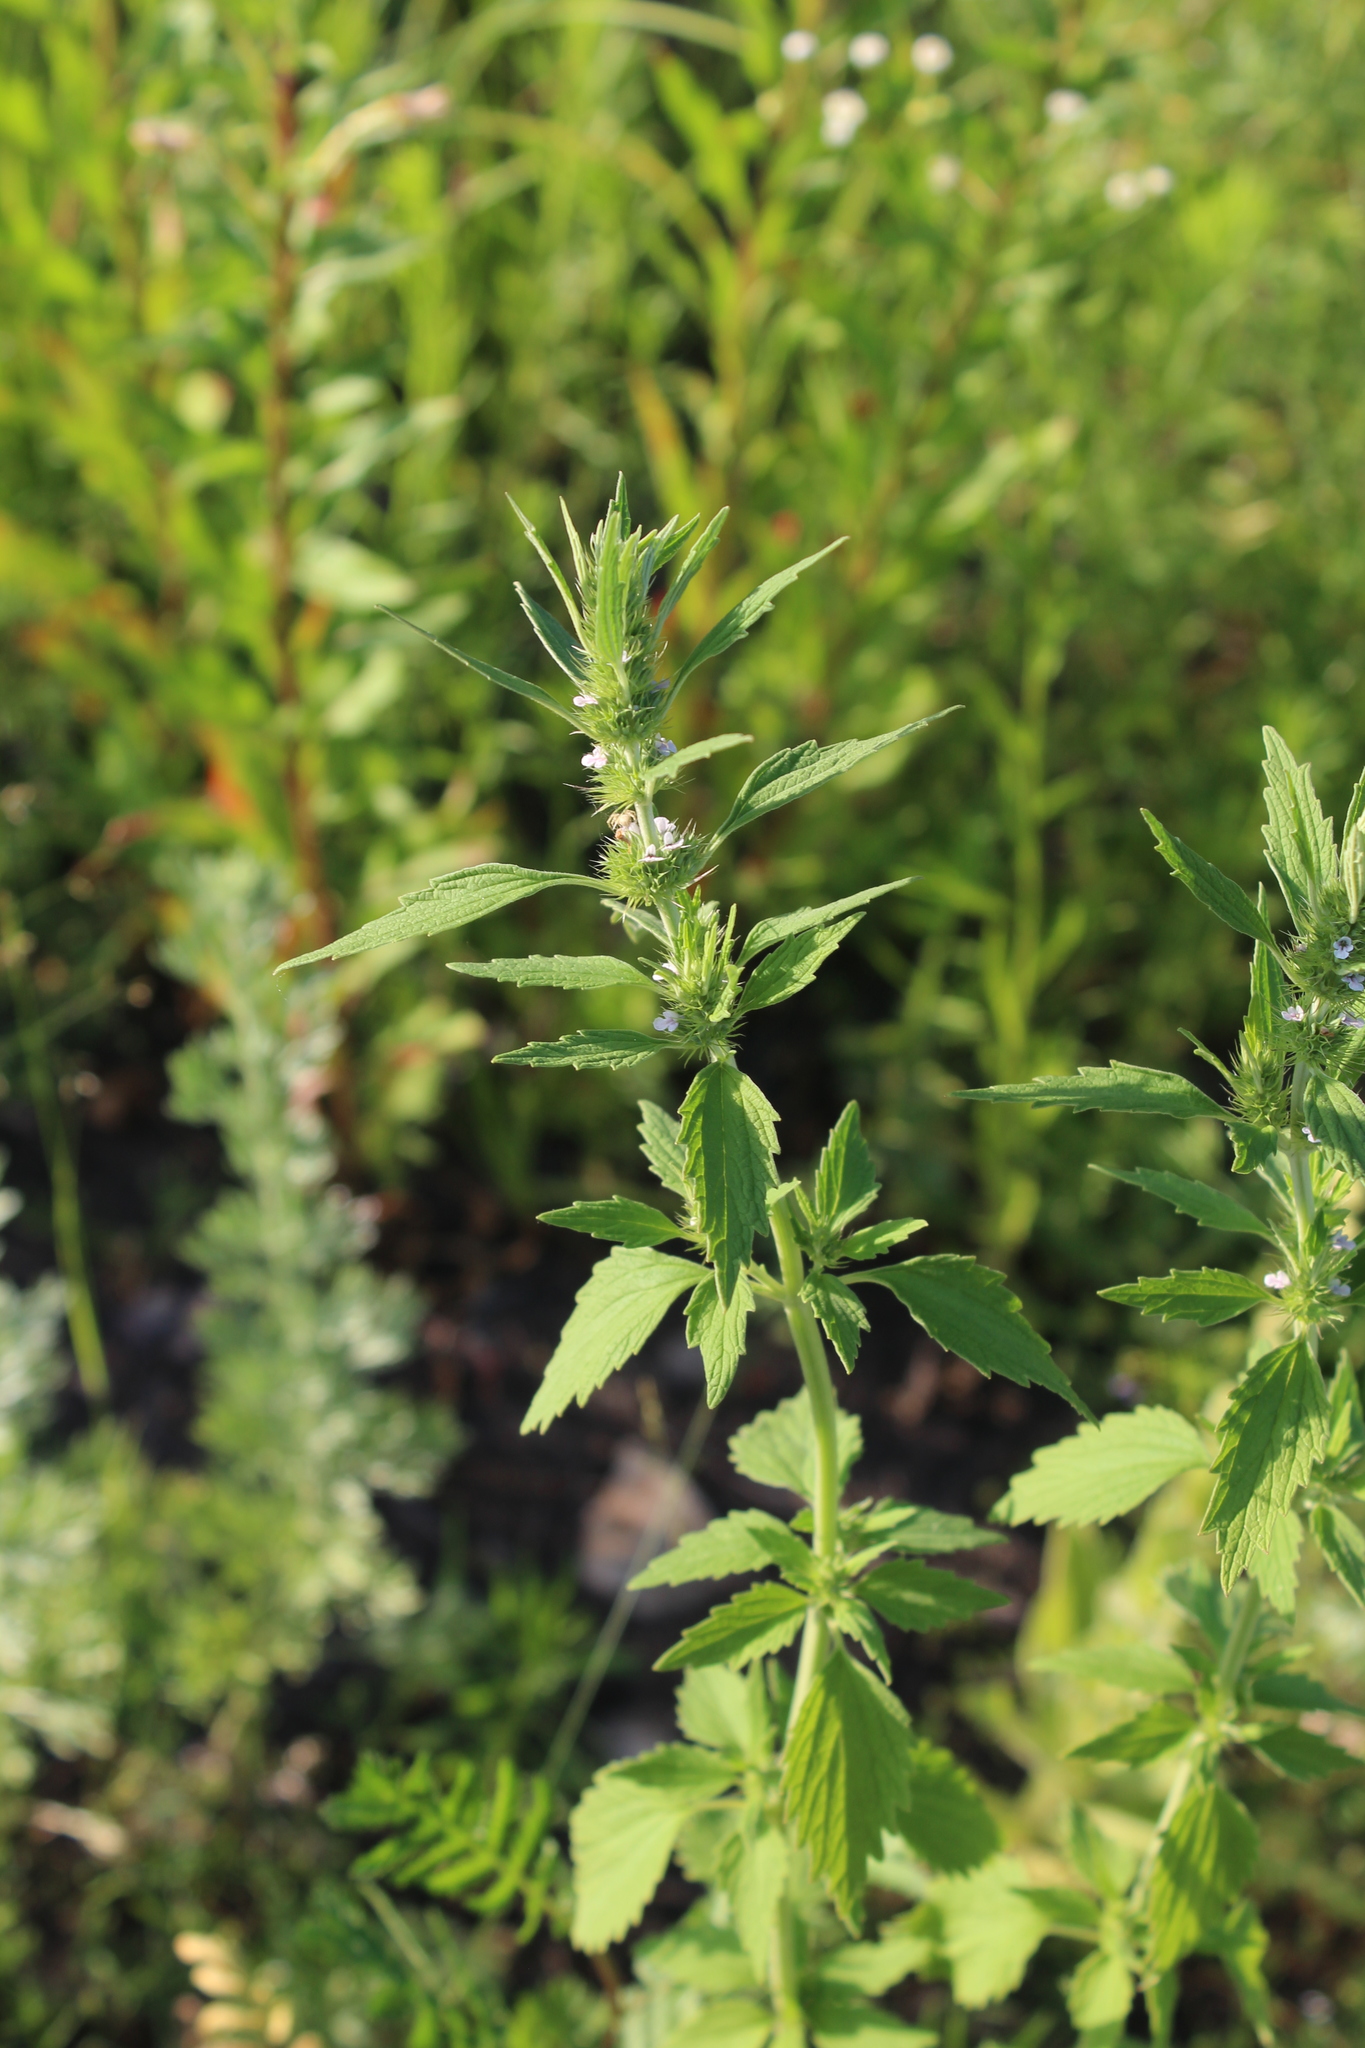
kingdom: Plantae
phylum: Tracheophyta
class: Magnoliopsida
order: Lamiales
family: Lamiaceae
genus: Chaiturus
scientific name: Chaiturus marrubiastrum
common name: Lion's tail
